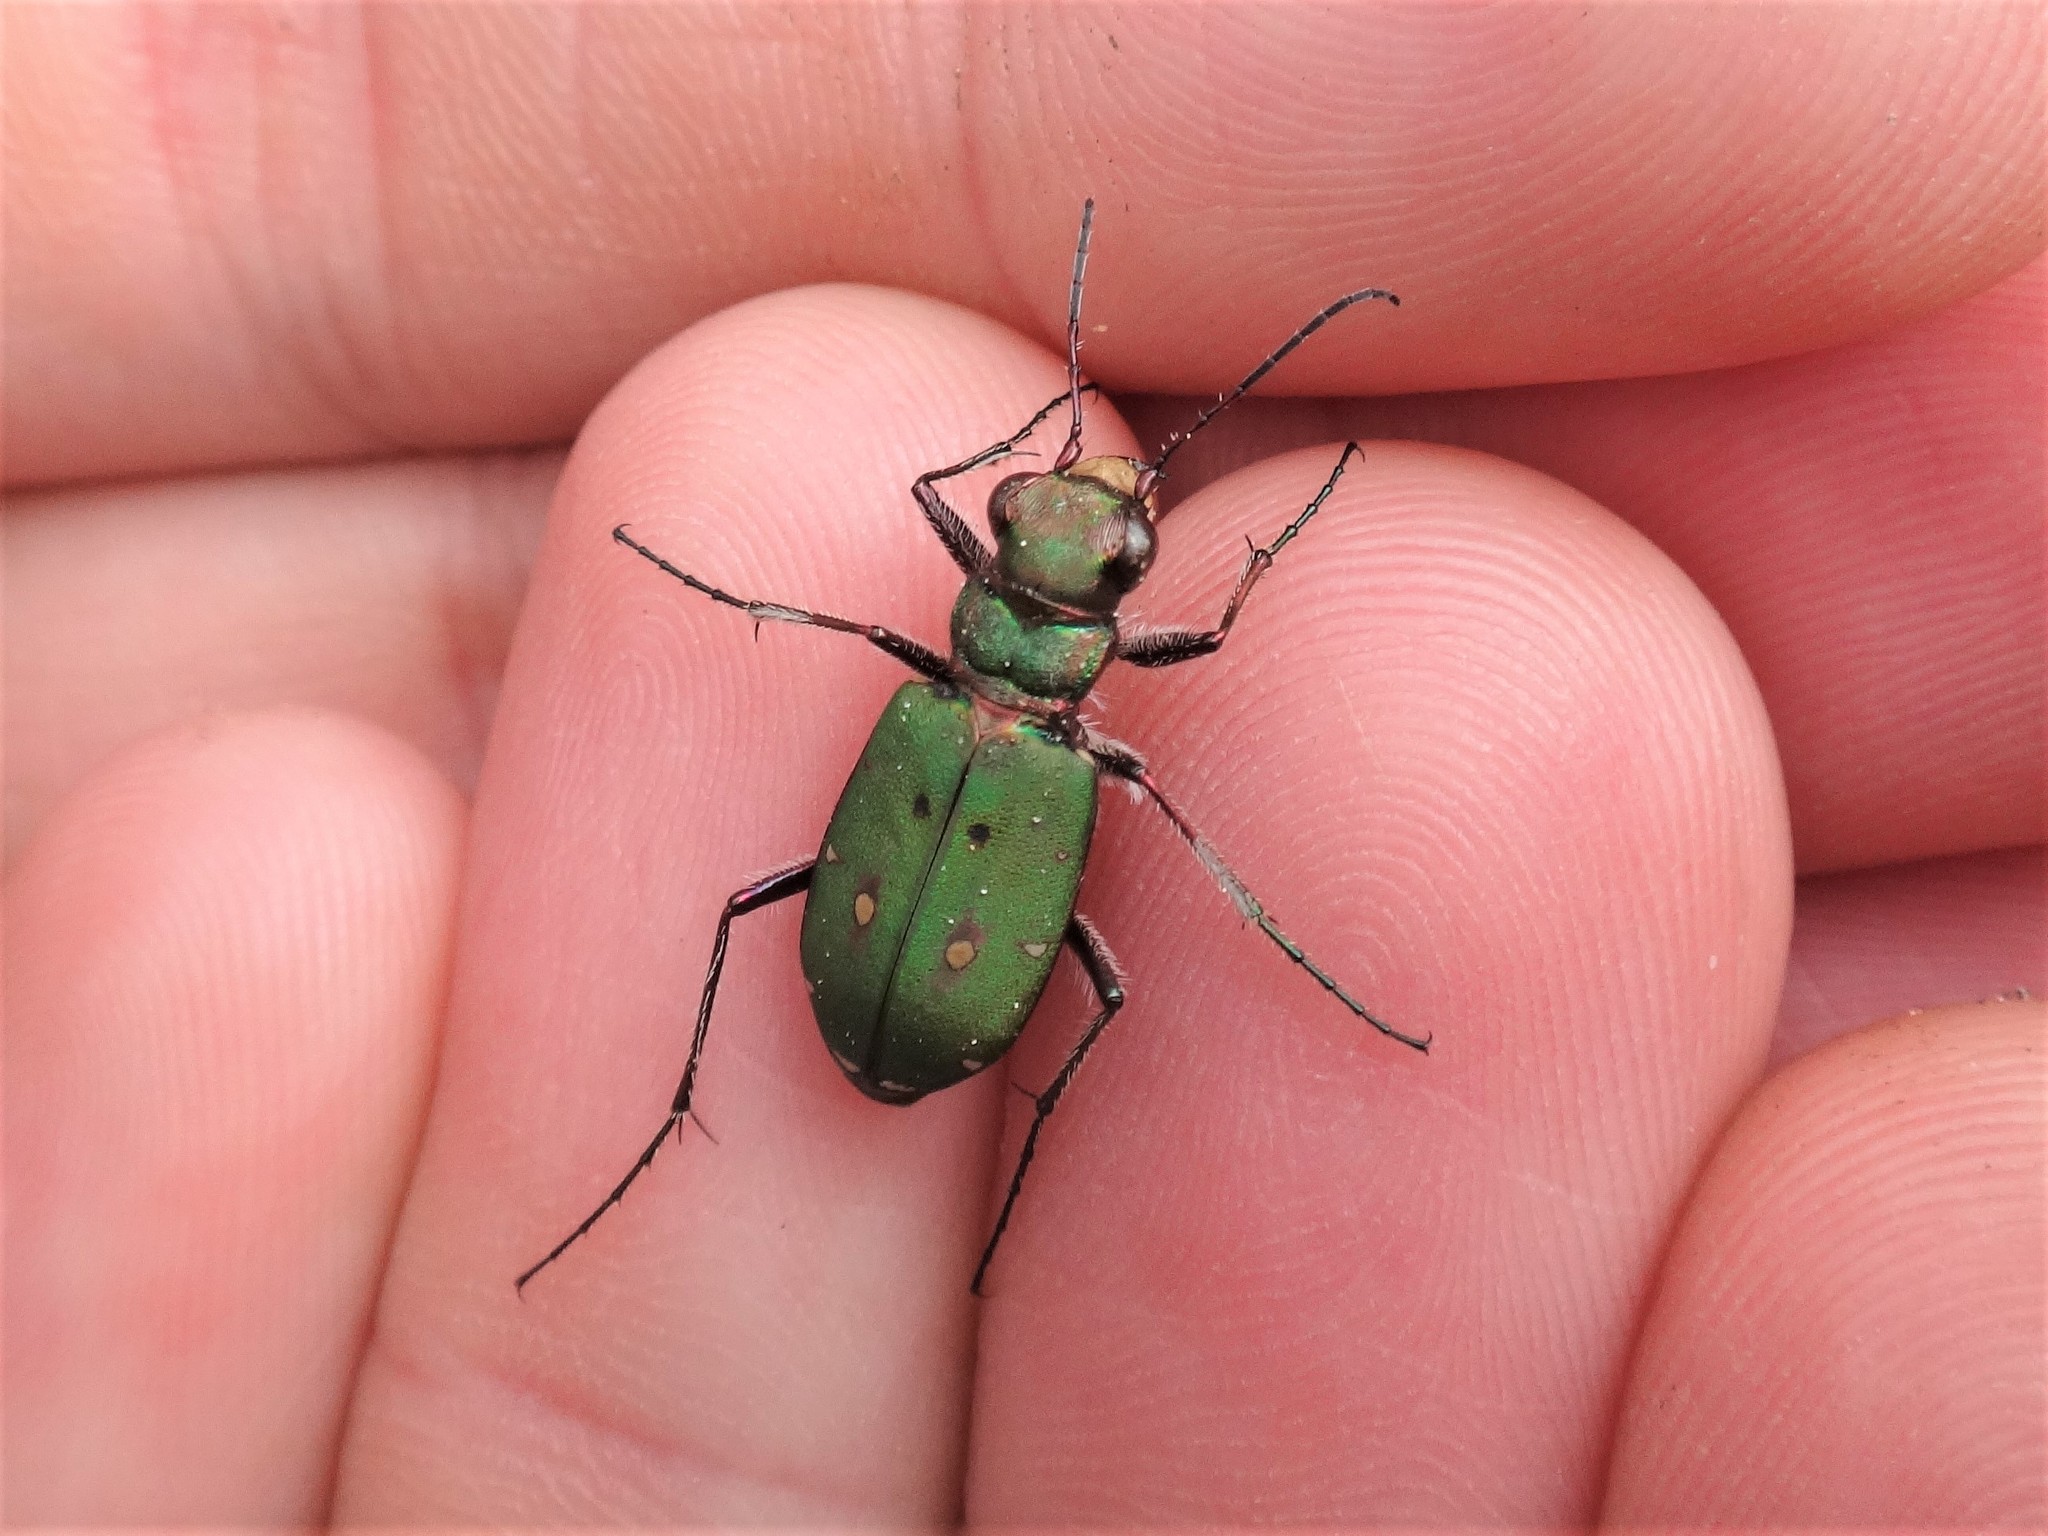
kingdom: Animalia
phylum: Arthropoda
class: Insecta
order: Coleoptera
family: Carabidae
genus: Cicindela
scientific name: Cicindela campestris
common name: Common tiger beetle
